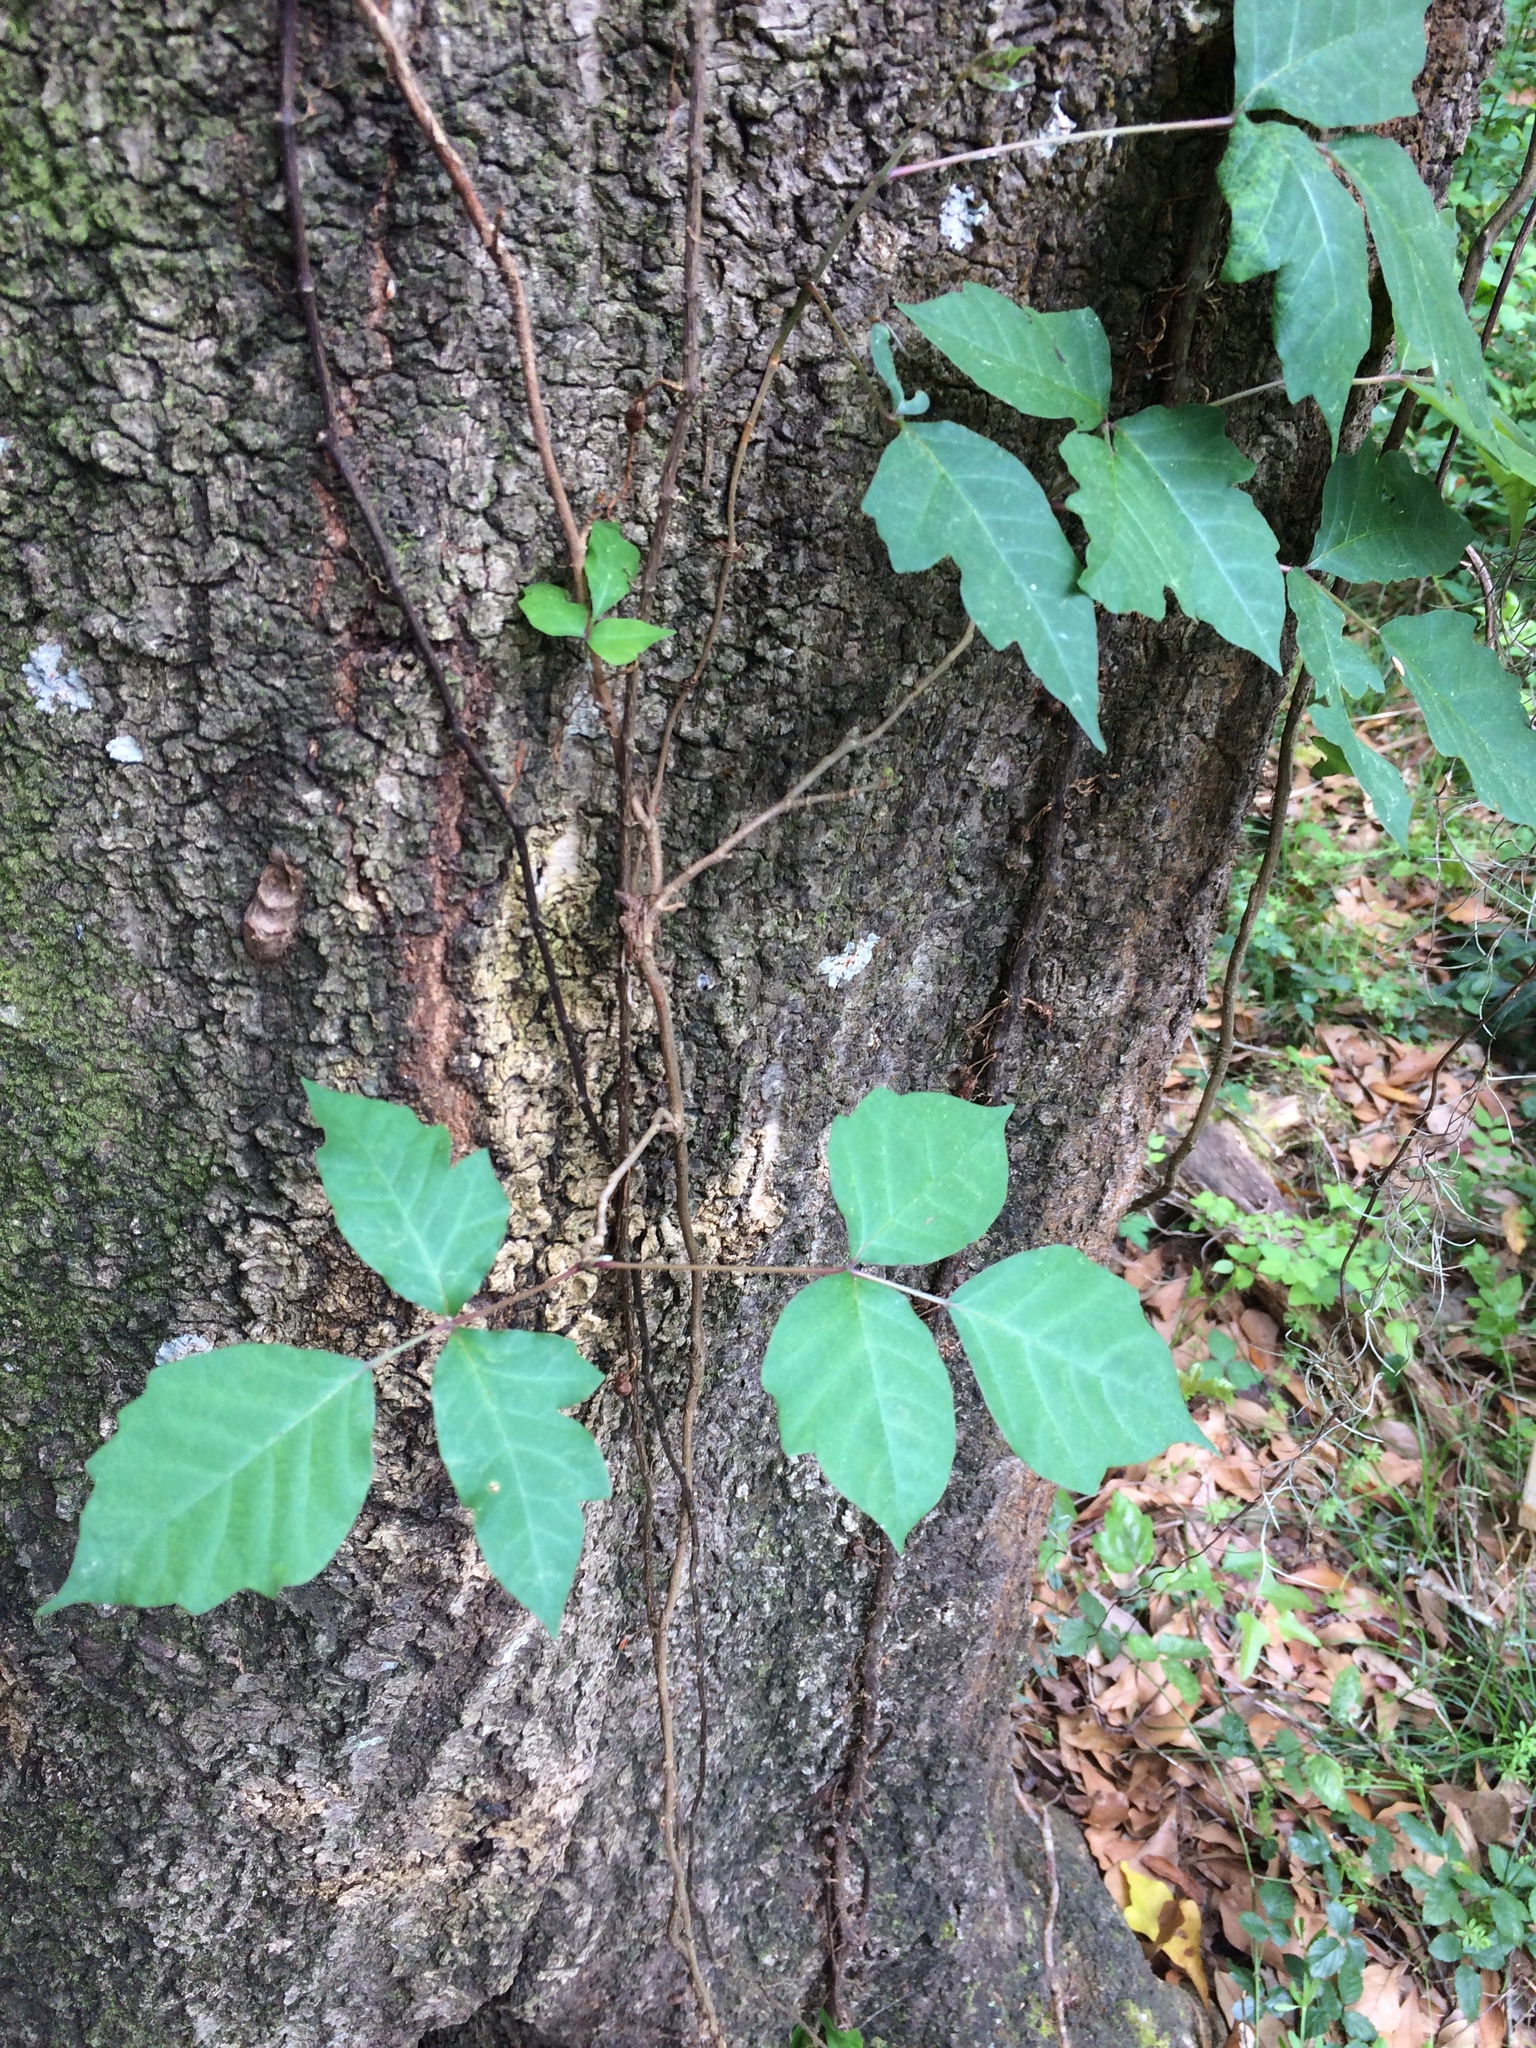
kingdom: Plantae
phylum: Tracheophyta
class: Magnoliopsida
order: Sapindales
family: Anacardiaceae
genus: Toxicodendron
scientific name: Toxicodendron radicans
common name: Poison ivy
